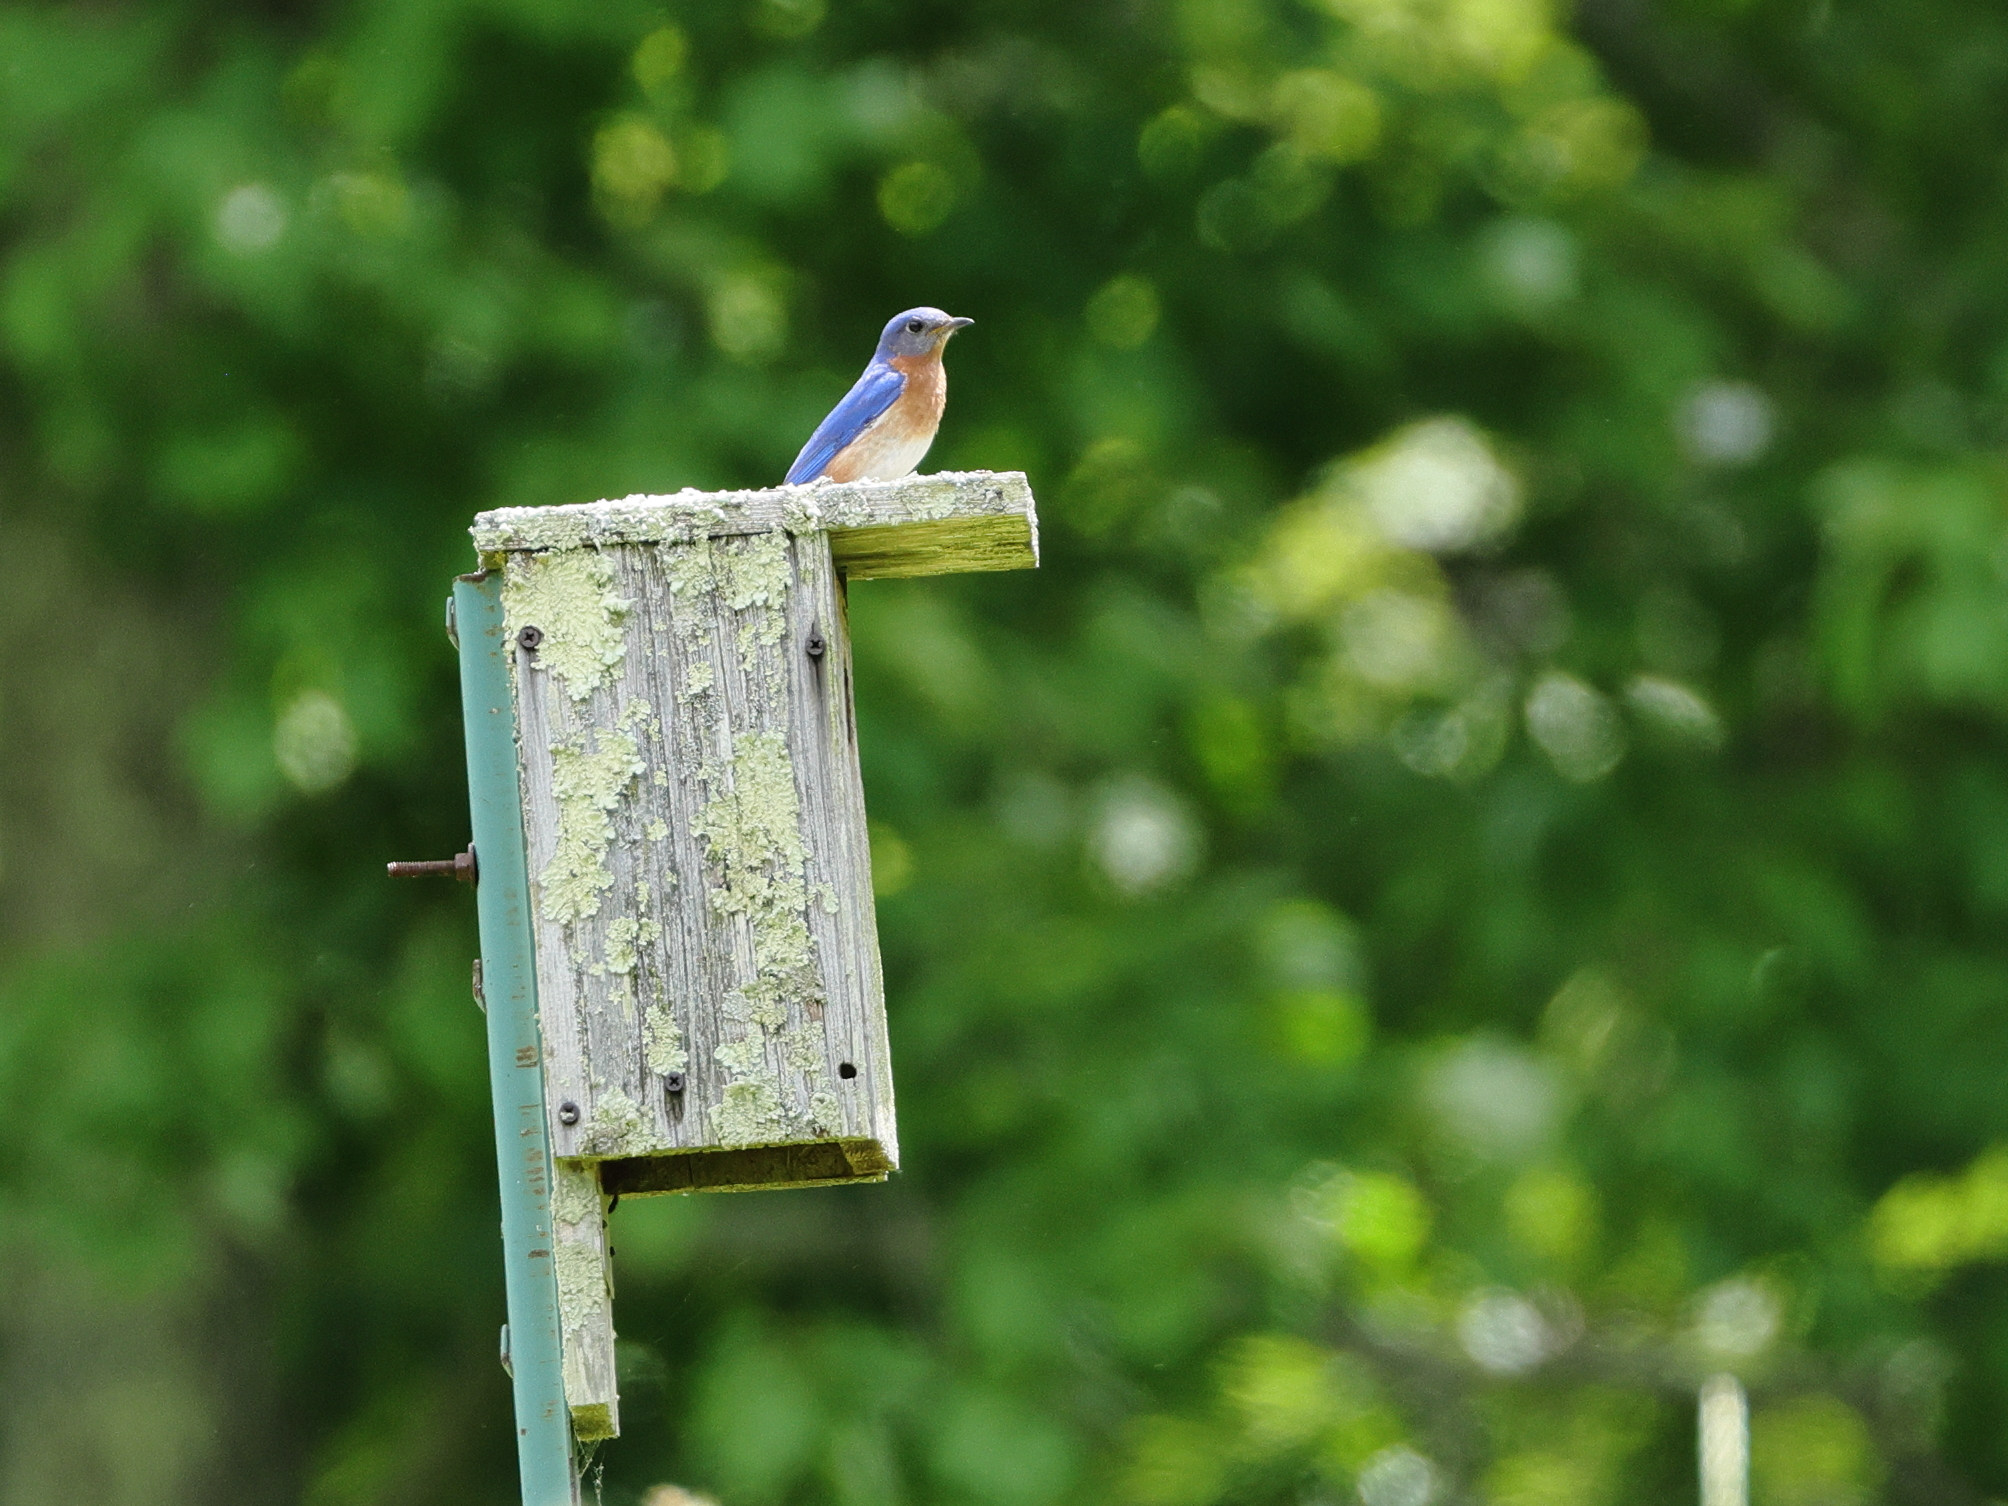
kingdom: Animalia
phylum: Chordata
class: Aves
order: Passeriformes
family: Turdidae
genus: Sialia
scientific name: Sialia sialis
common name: Eastern bluebird
